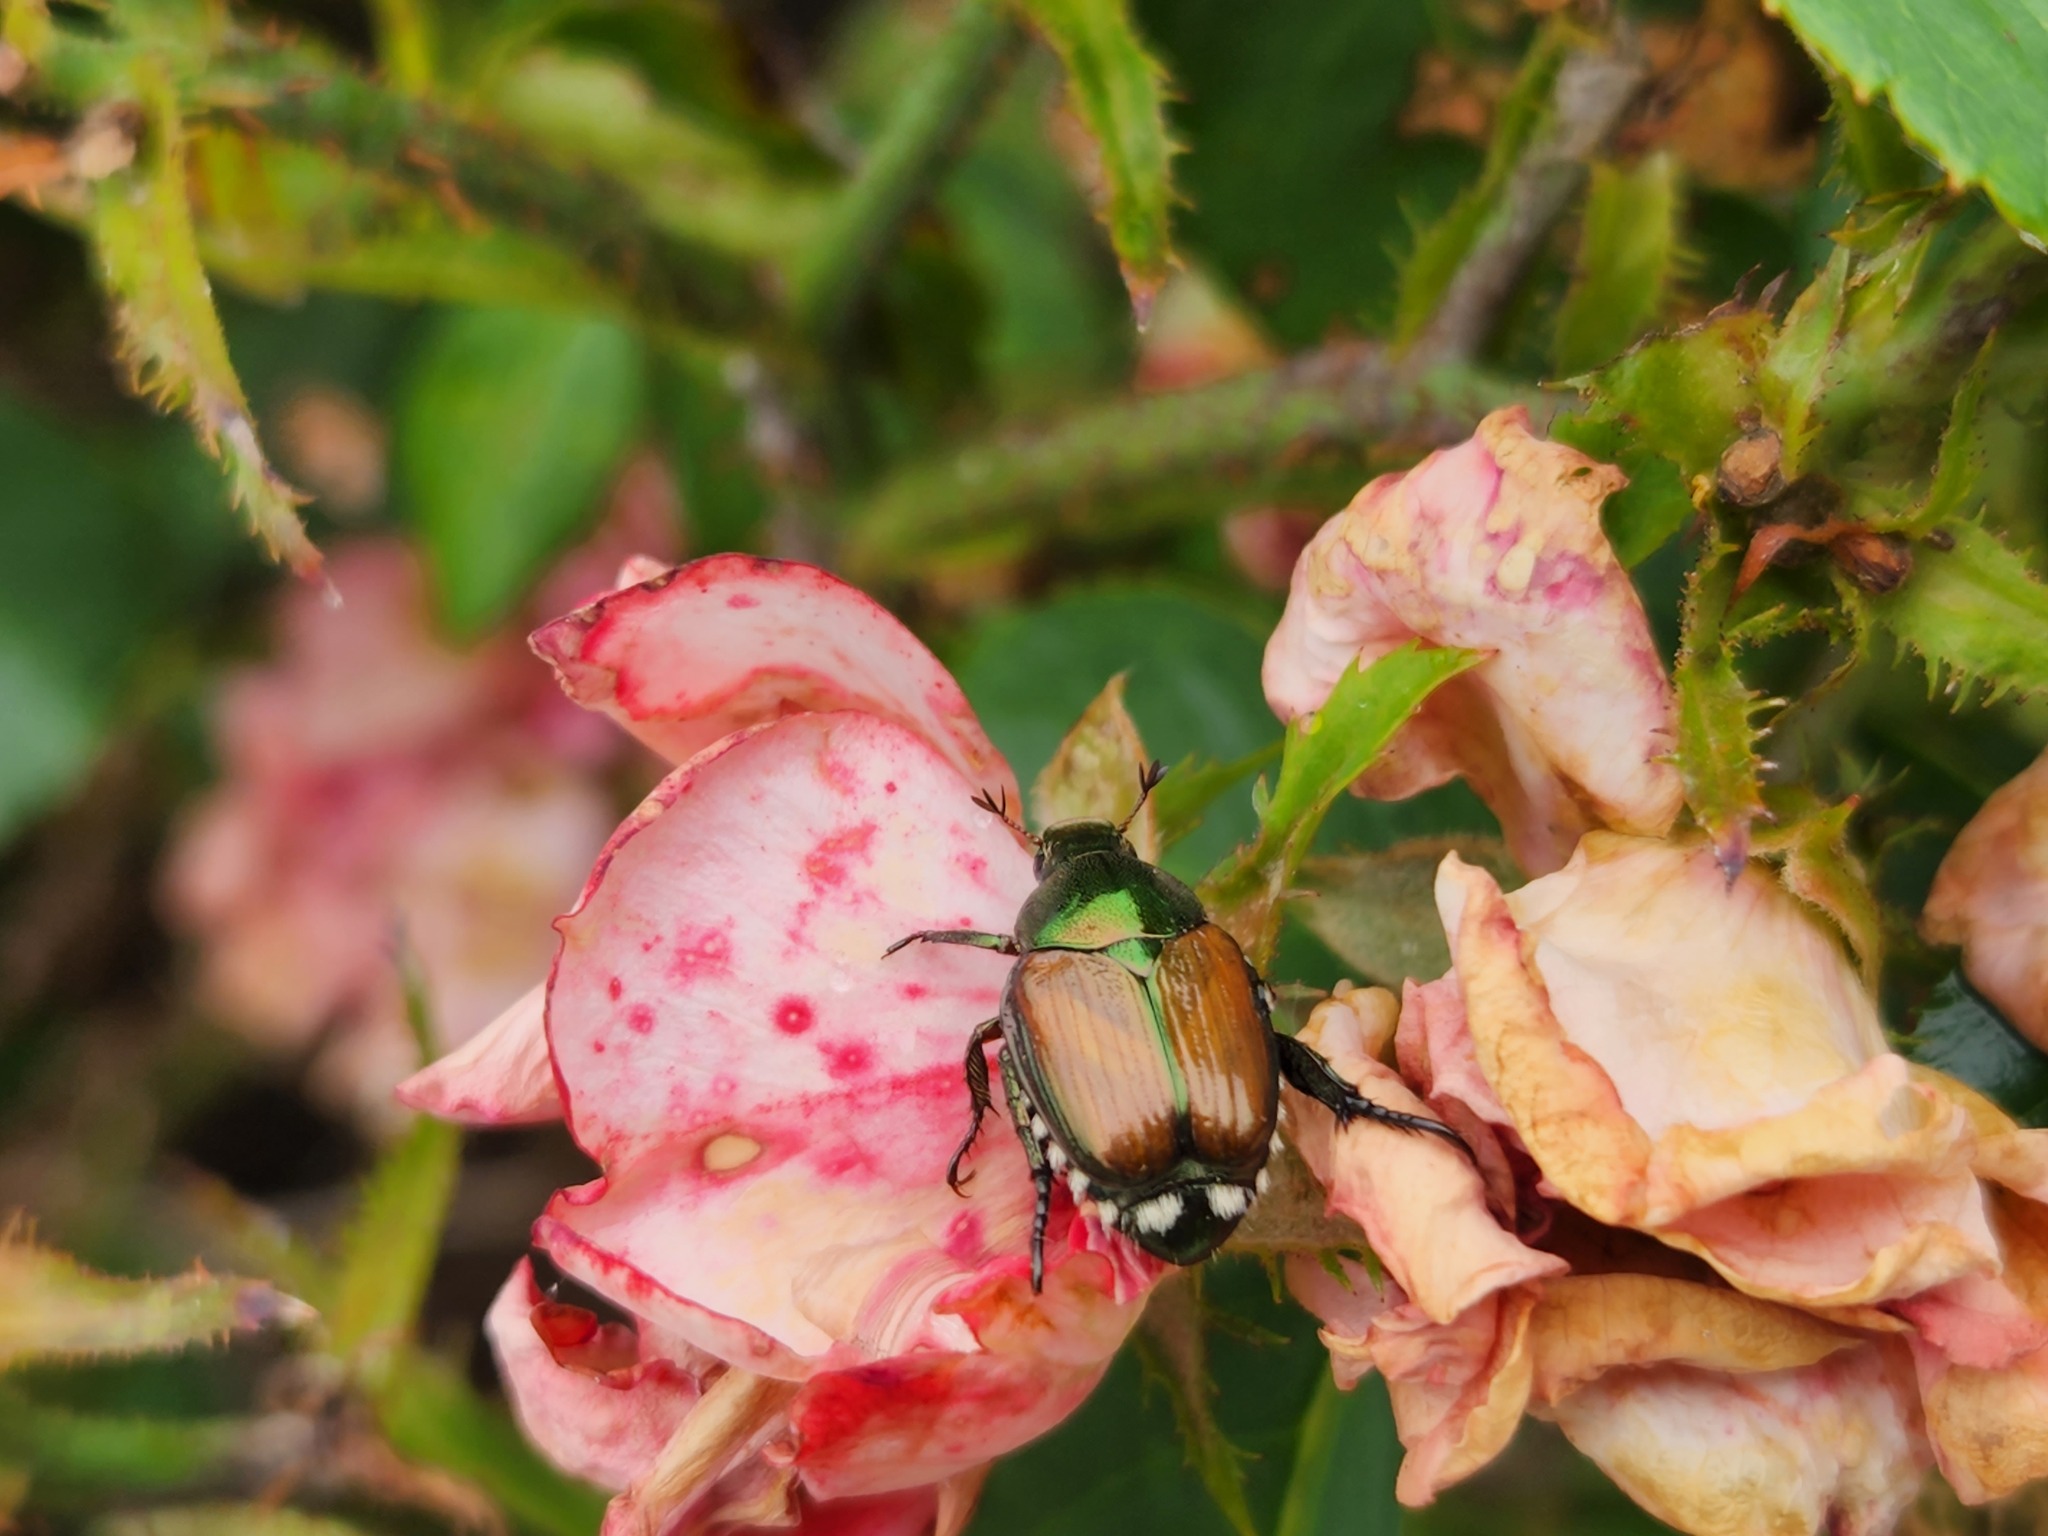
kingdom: Animalia
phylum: Arthropoda
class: Insecta
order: Coleoptera
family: Scarabaeidae
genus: Popillia
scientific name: Popillia japonica
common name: Japanese beetle
